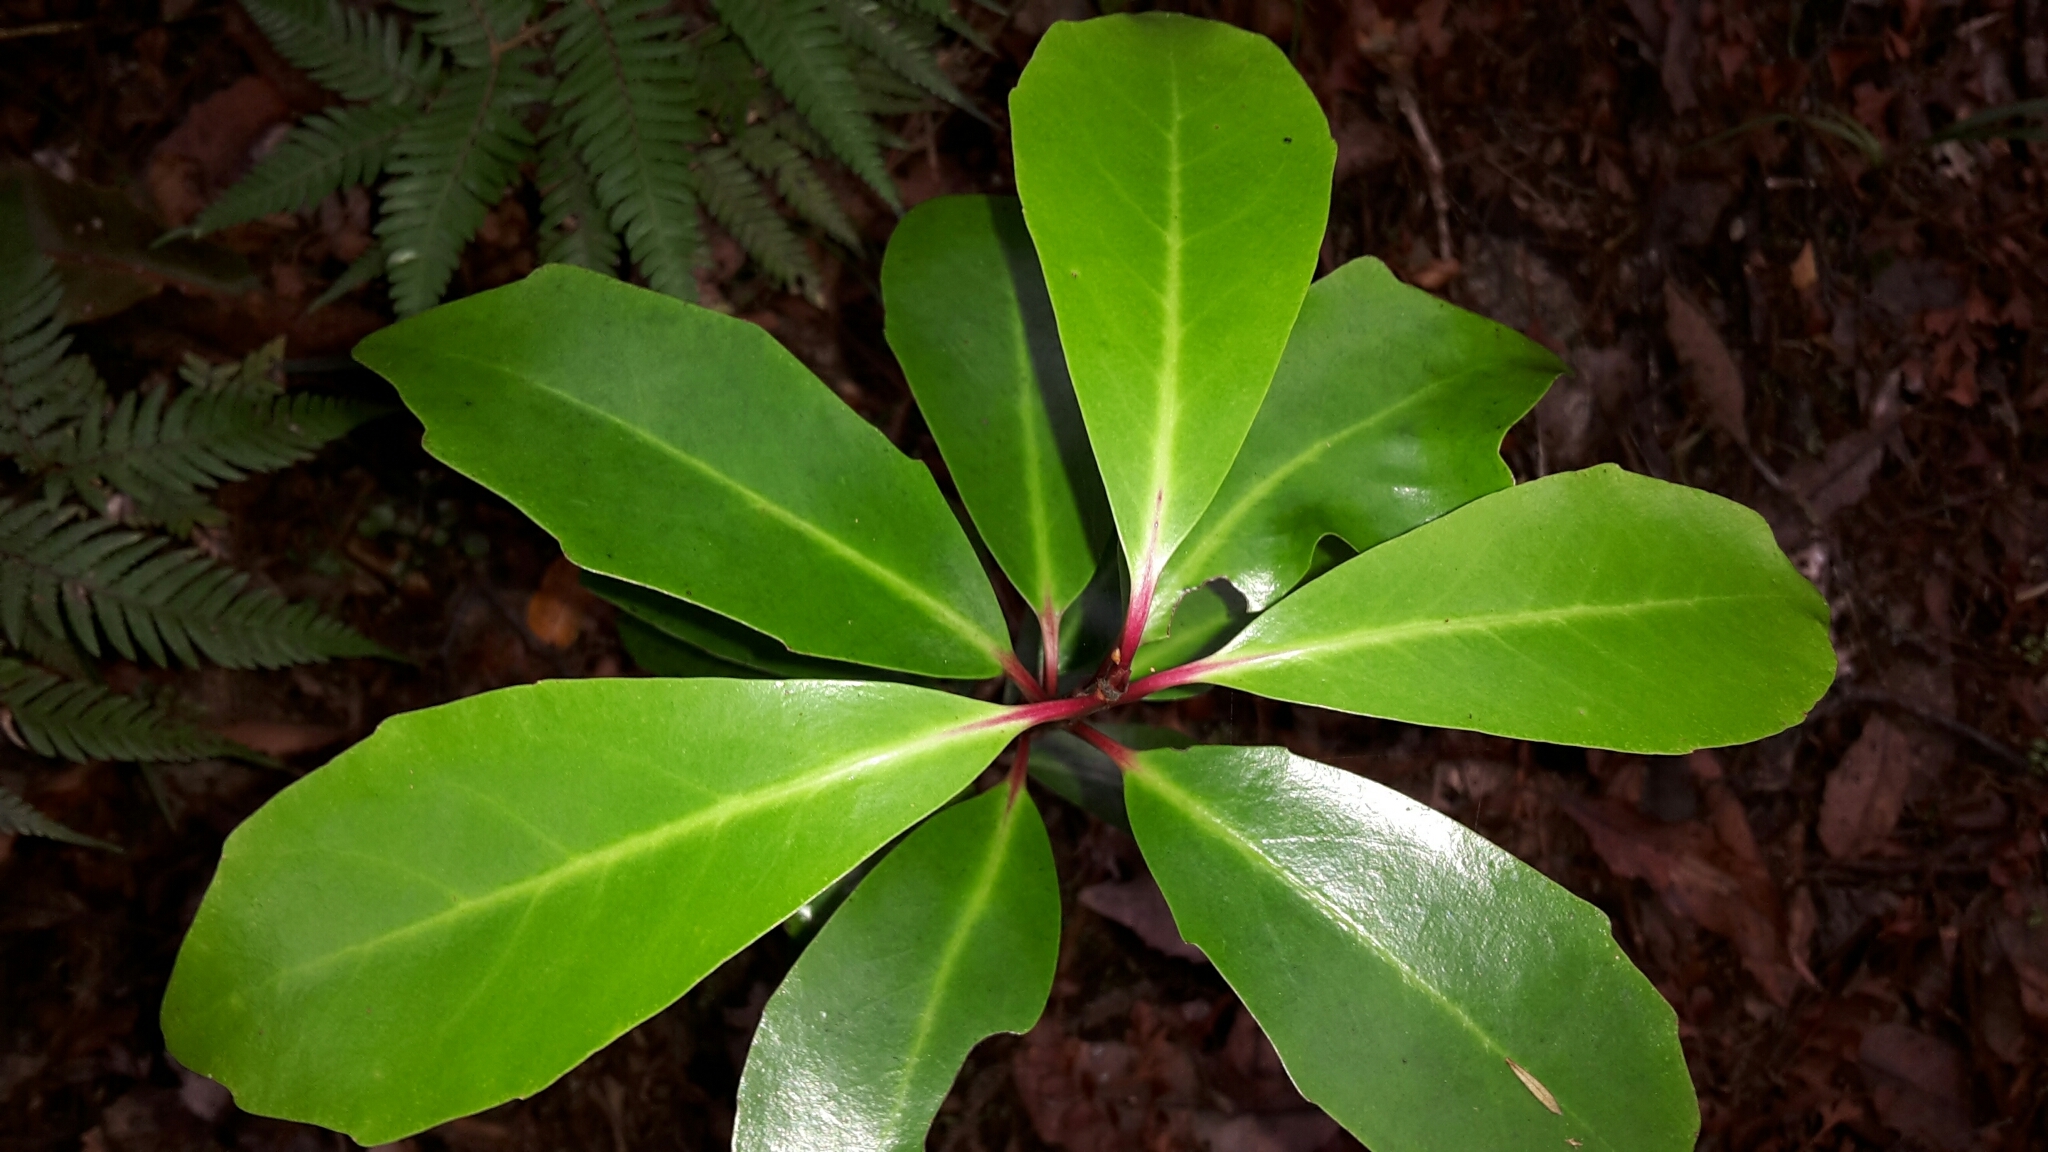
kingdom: Plantae
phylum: Tracheophyta
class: Magnoliopsida
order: Asterales
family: Alseuosmiaceae
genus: Alseuosmia
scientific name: Alseuosmia quercifolia
